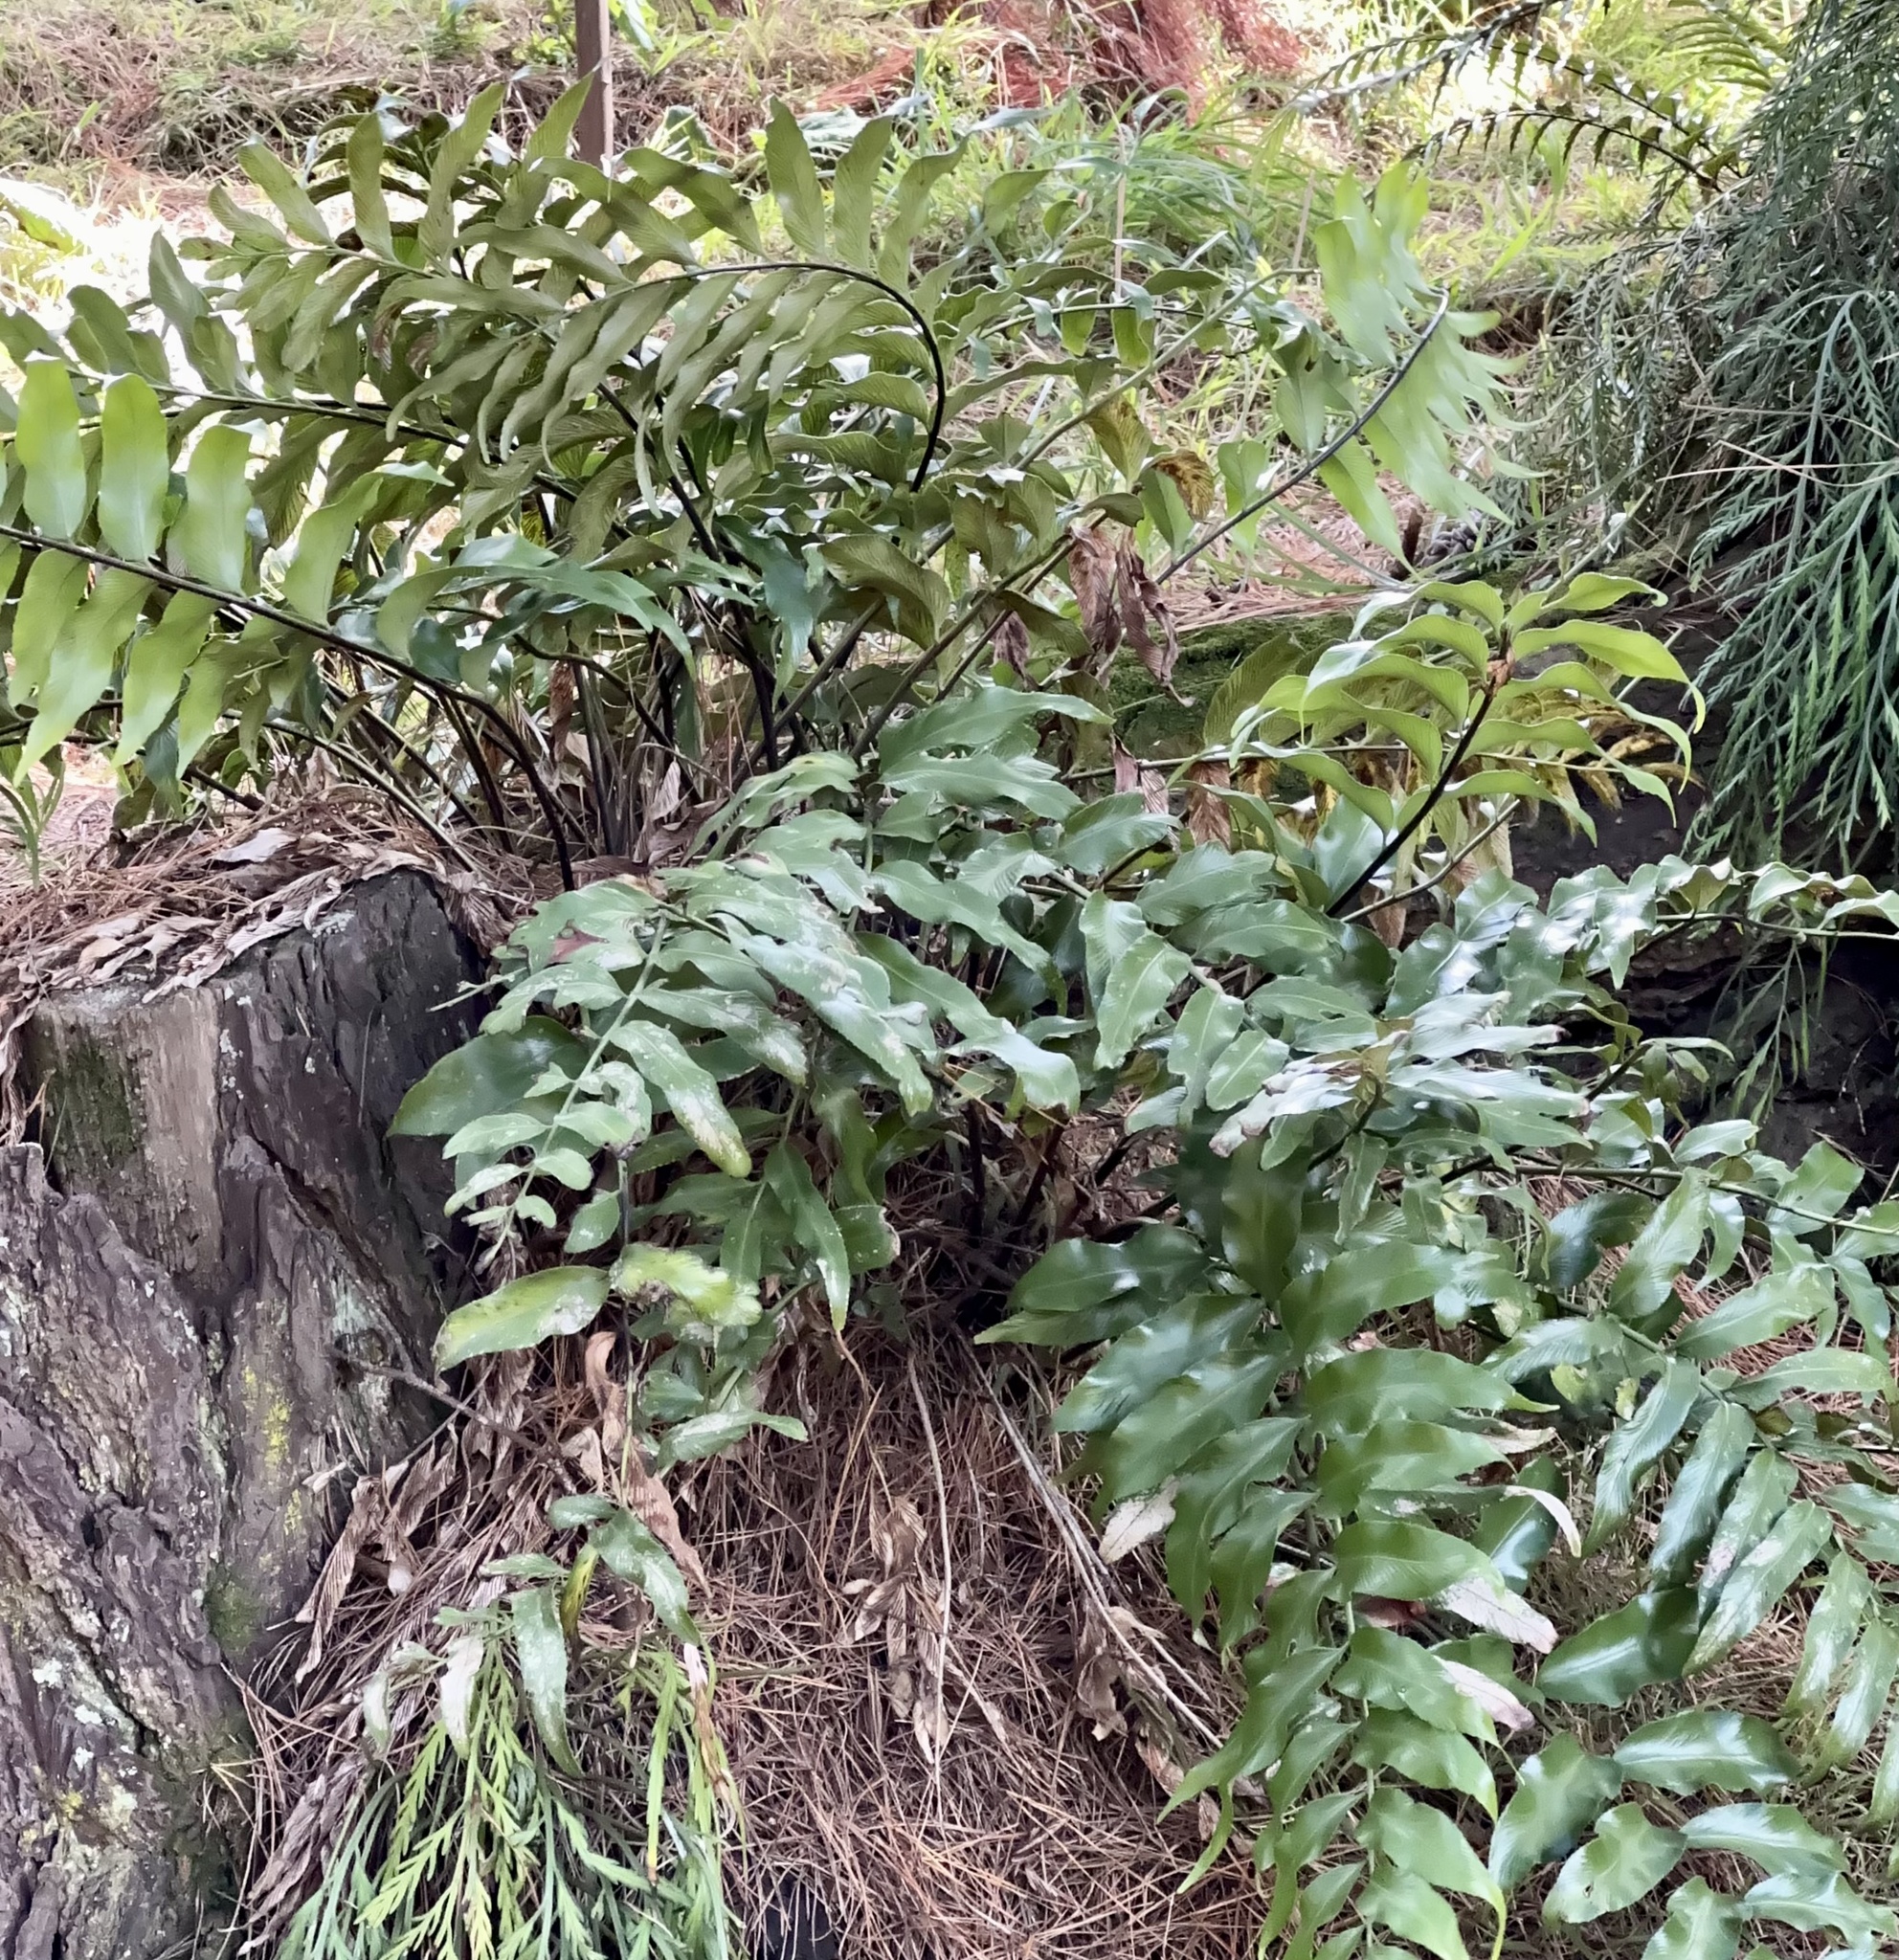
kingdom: Plantae
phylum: Tracheophyta
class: Polypodiopsida
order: Polypodiales
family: Aspleniaceae
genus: Asplenium
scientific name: Asplenium oblongifolium
